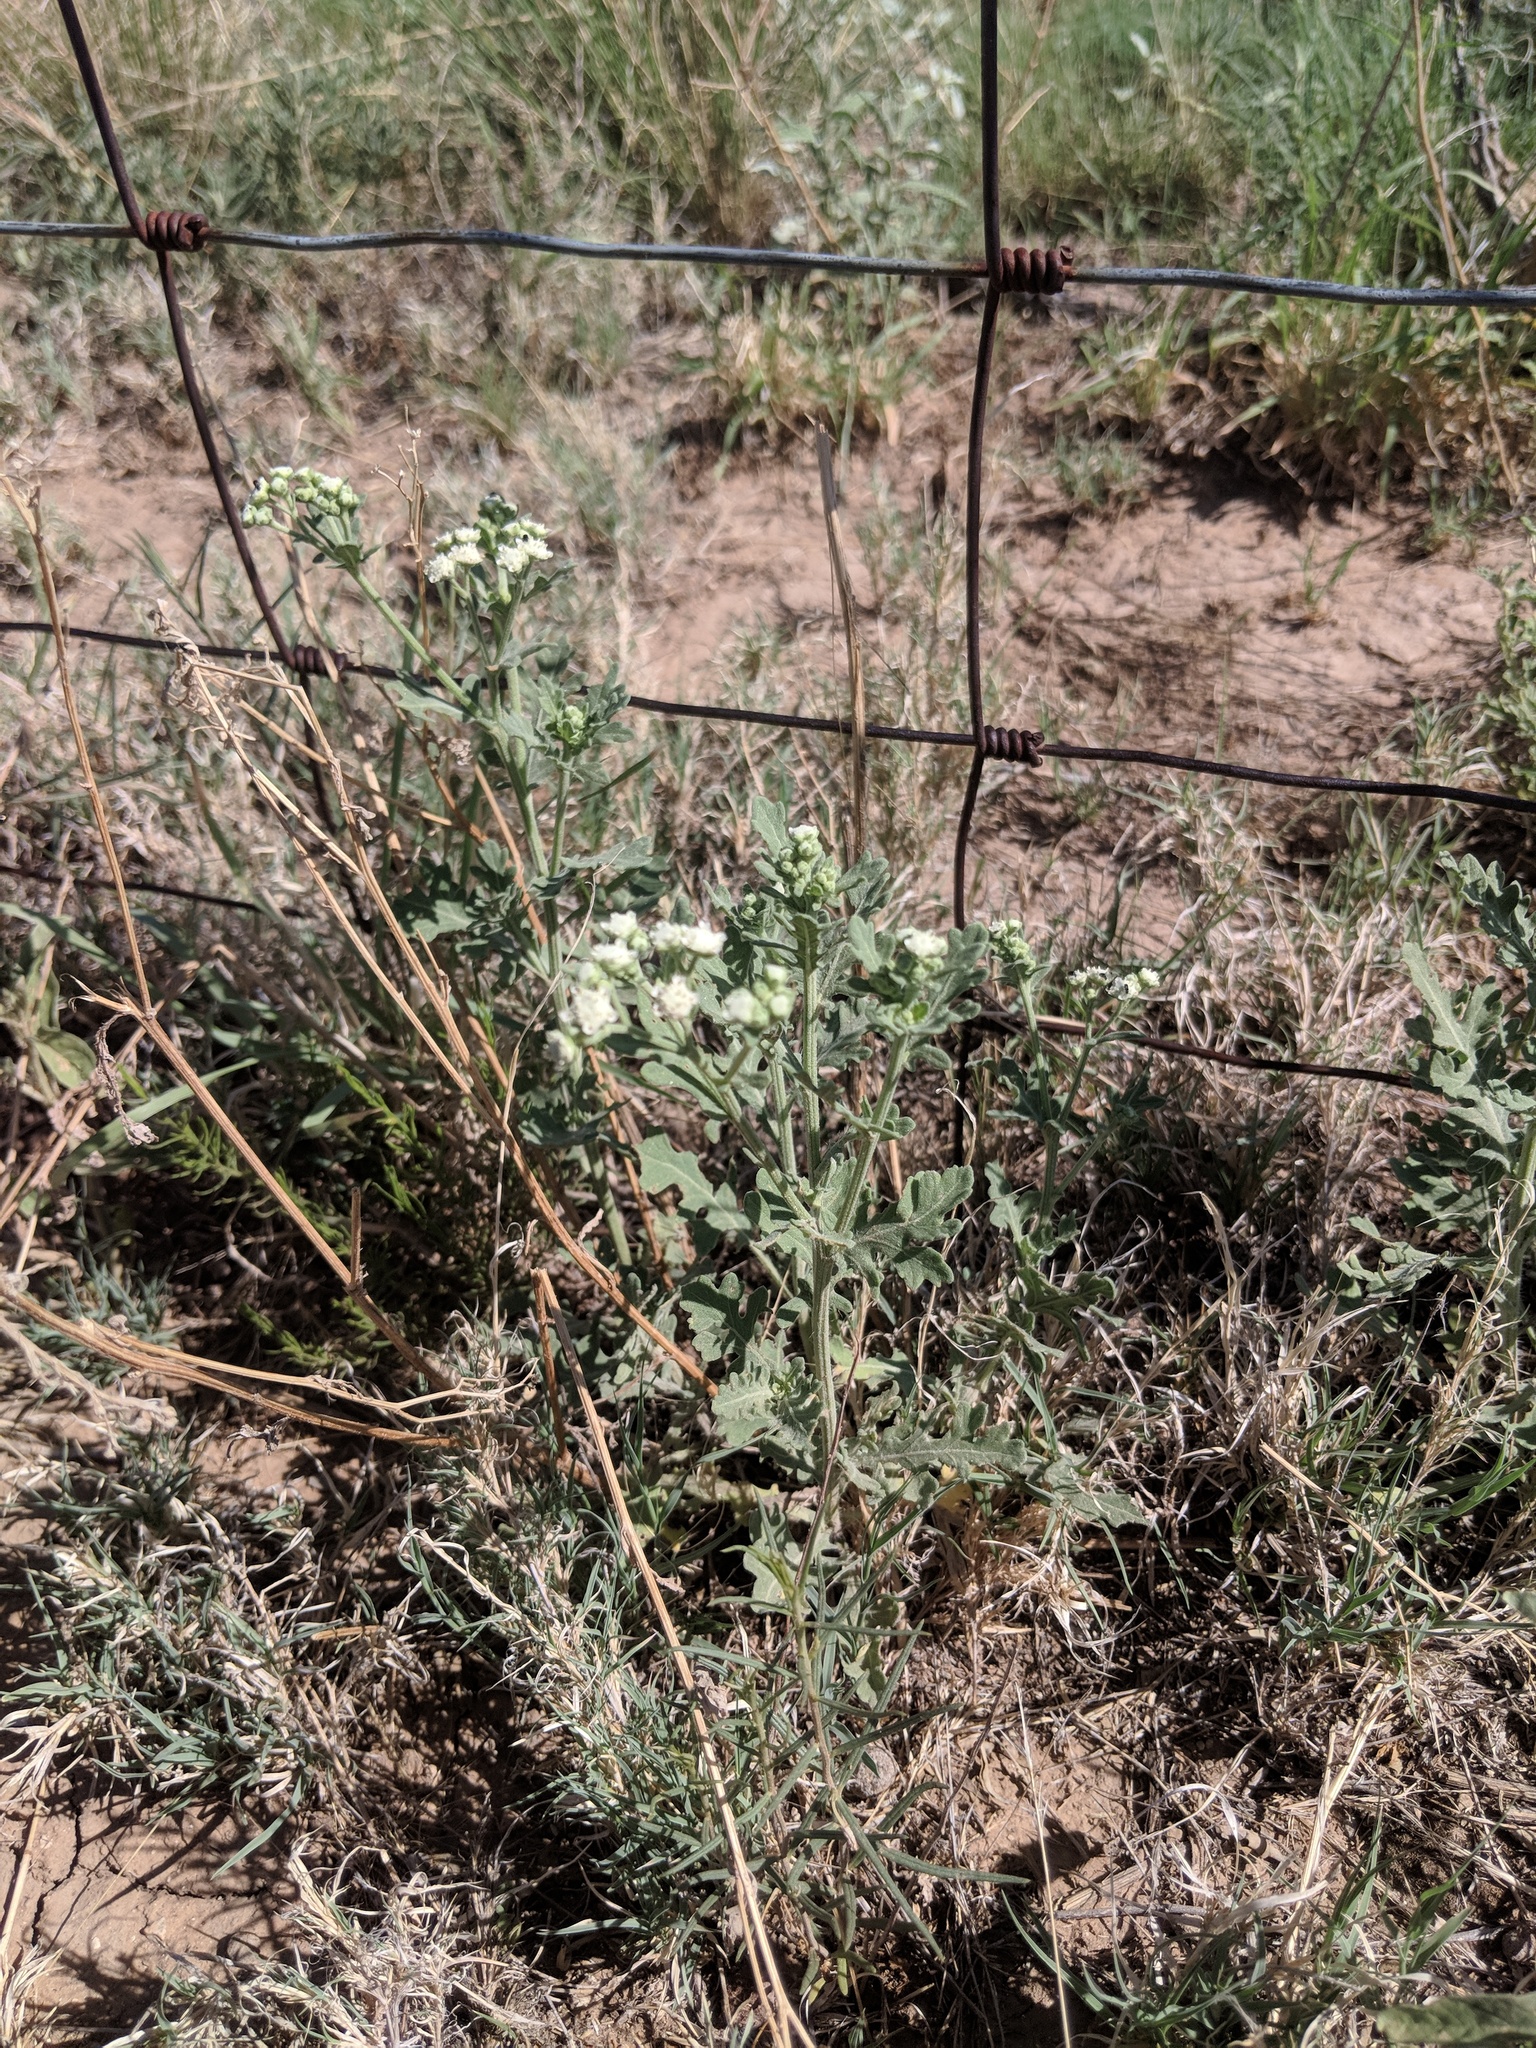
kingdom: Plantae
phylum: Tracheophyta
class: Magnoliopsida
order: Asterales
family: Asteraceae
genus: Parthenium
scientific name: Parthenium incanum
